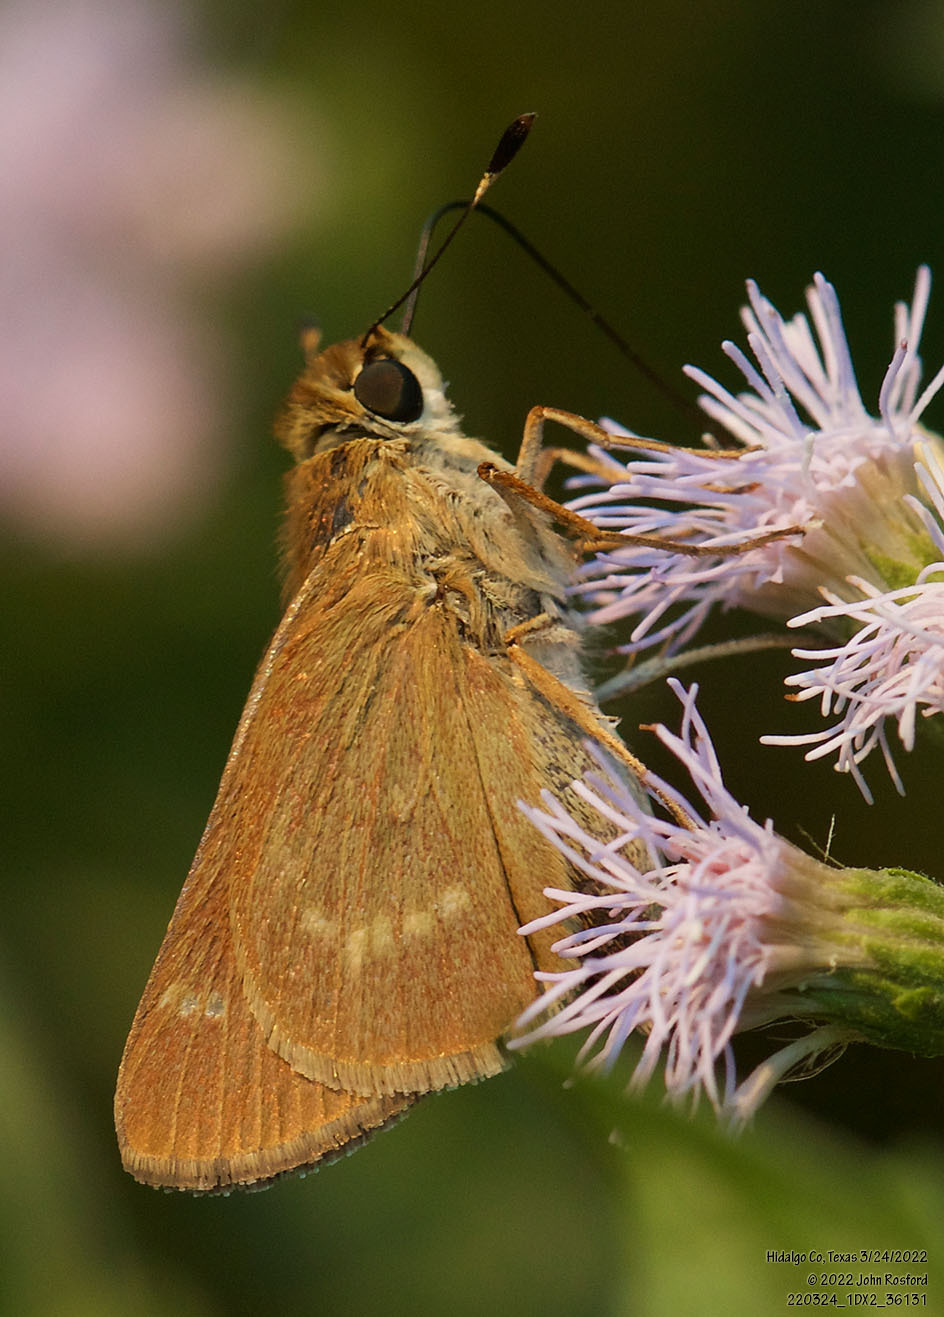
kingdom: Animalia
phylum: Arthropoda
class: Insecta
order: Lepidoptera
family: Hesperiidae
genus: Mellana
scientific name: Mellana eulogius
